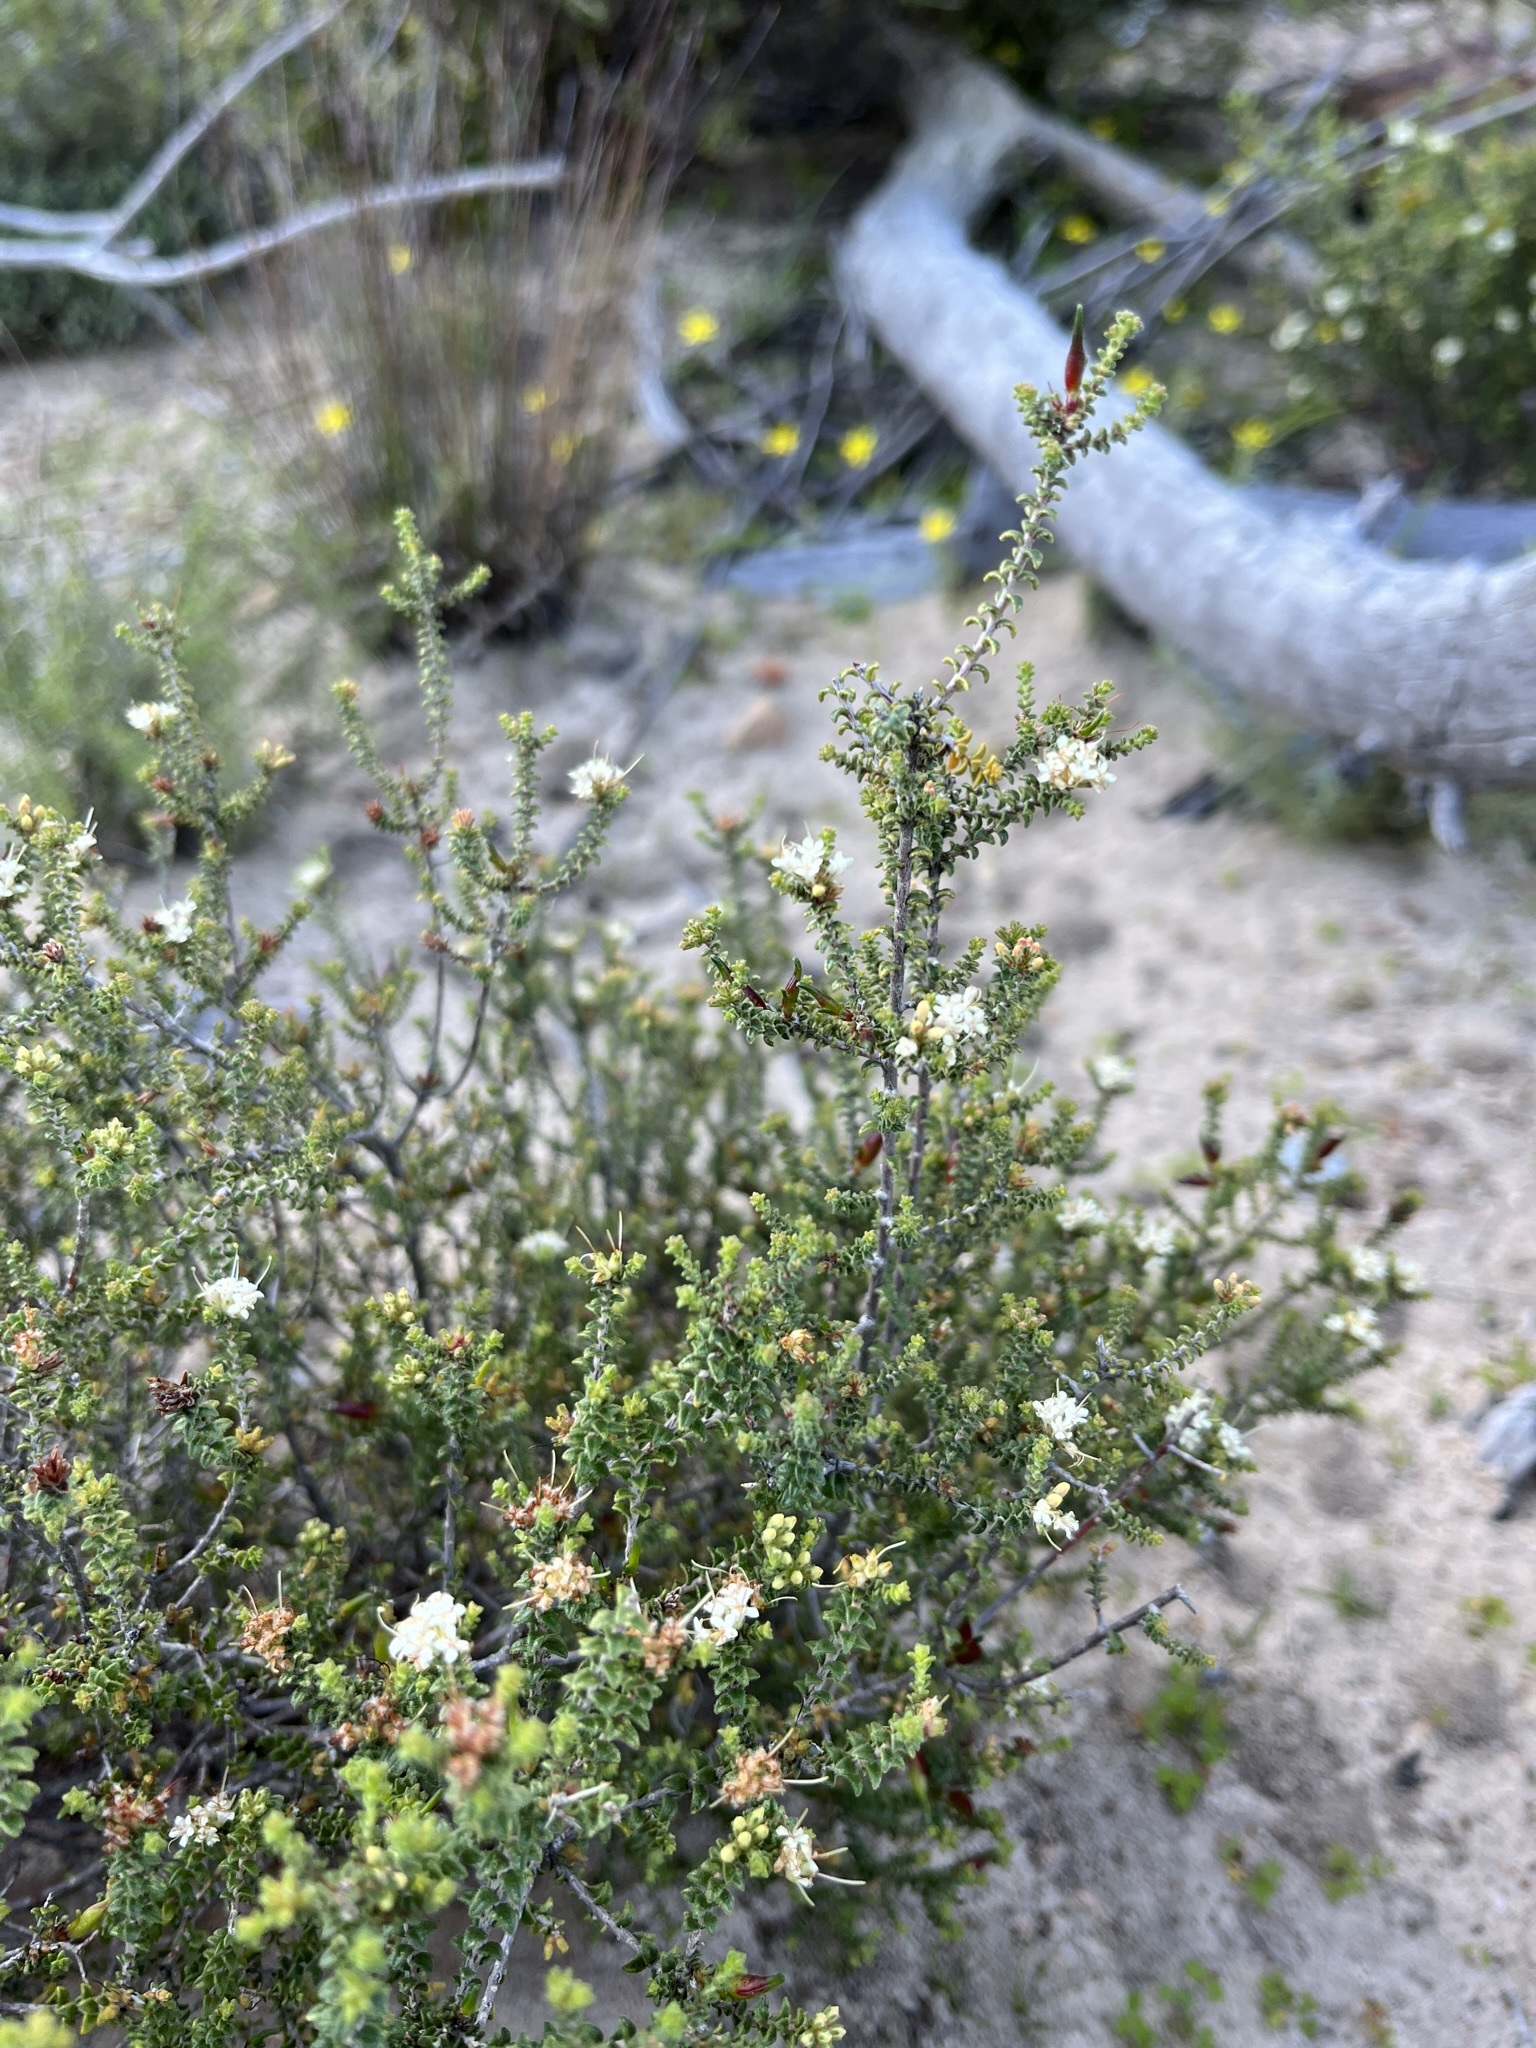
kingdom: Plantae
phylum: Tracheophyta
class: Magnoliopsida
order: Sapindales
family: Rutaceae
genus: Macrostylis
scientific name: Macrostylis squarrosa
